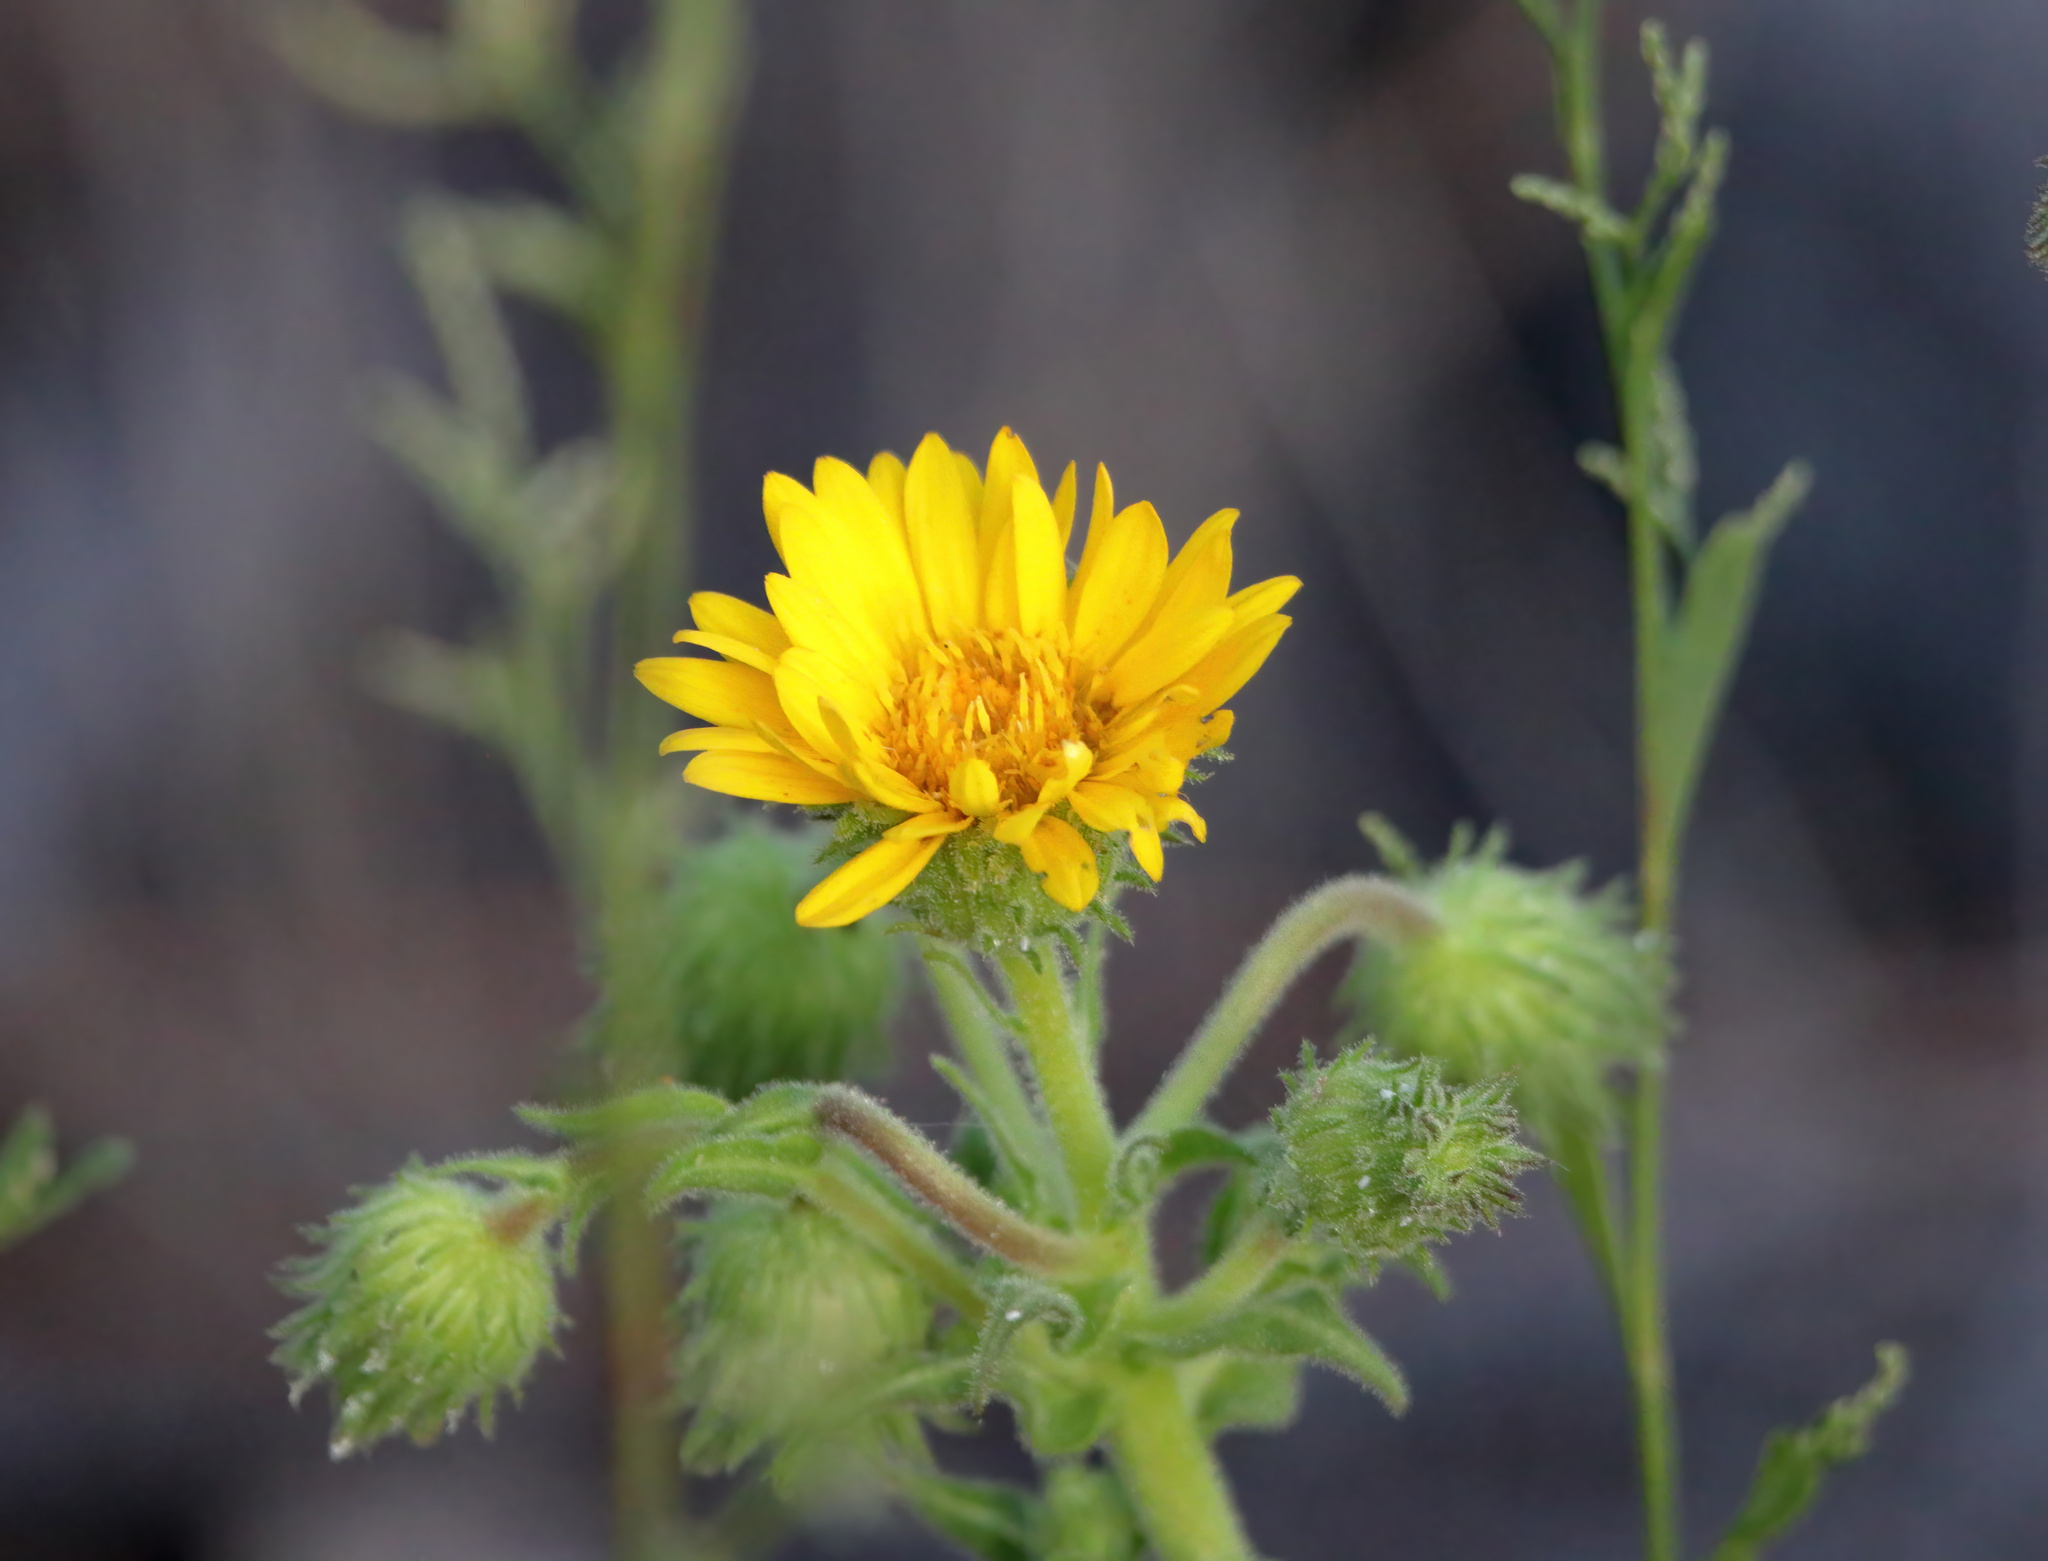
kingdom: Plantae
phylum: Tracheophyta
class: Magnoliopsida
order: Asterales
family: Asteraceae
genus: Chrysopsis
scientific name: Chrysopsis godfreyi
